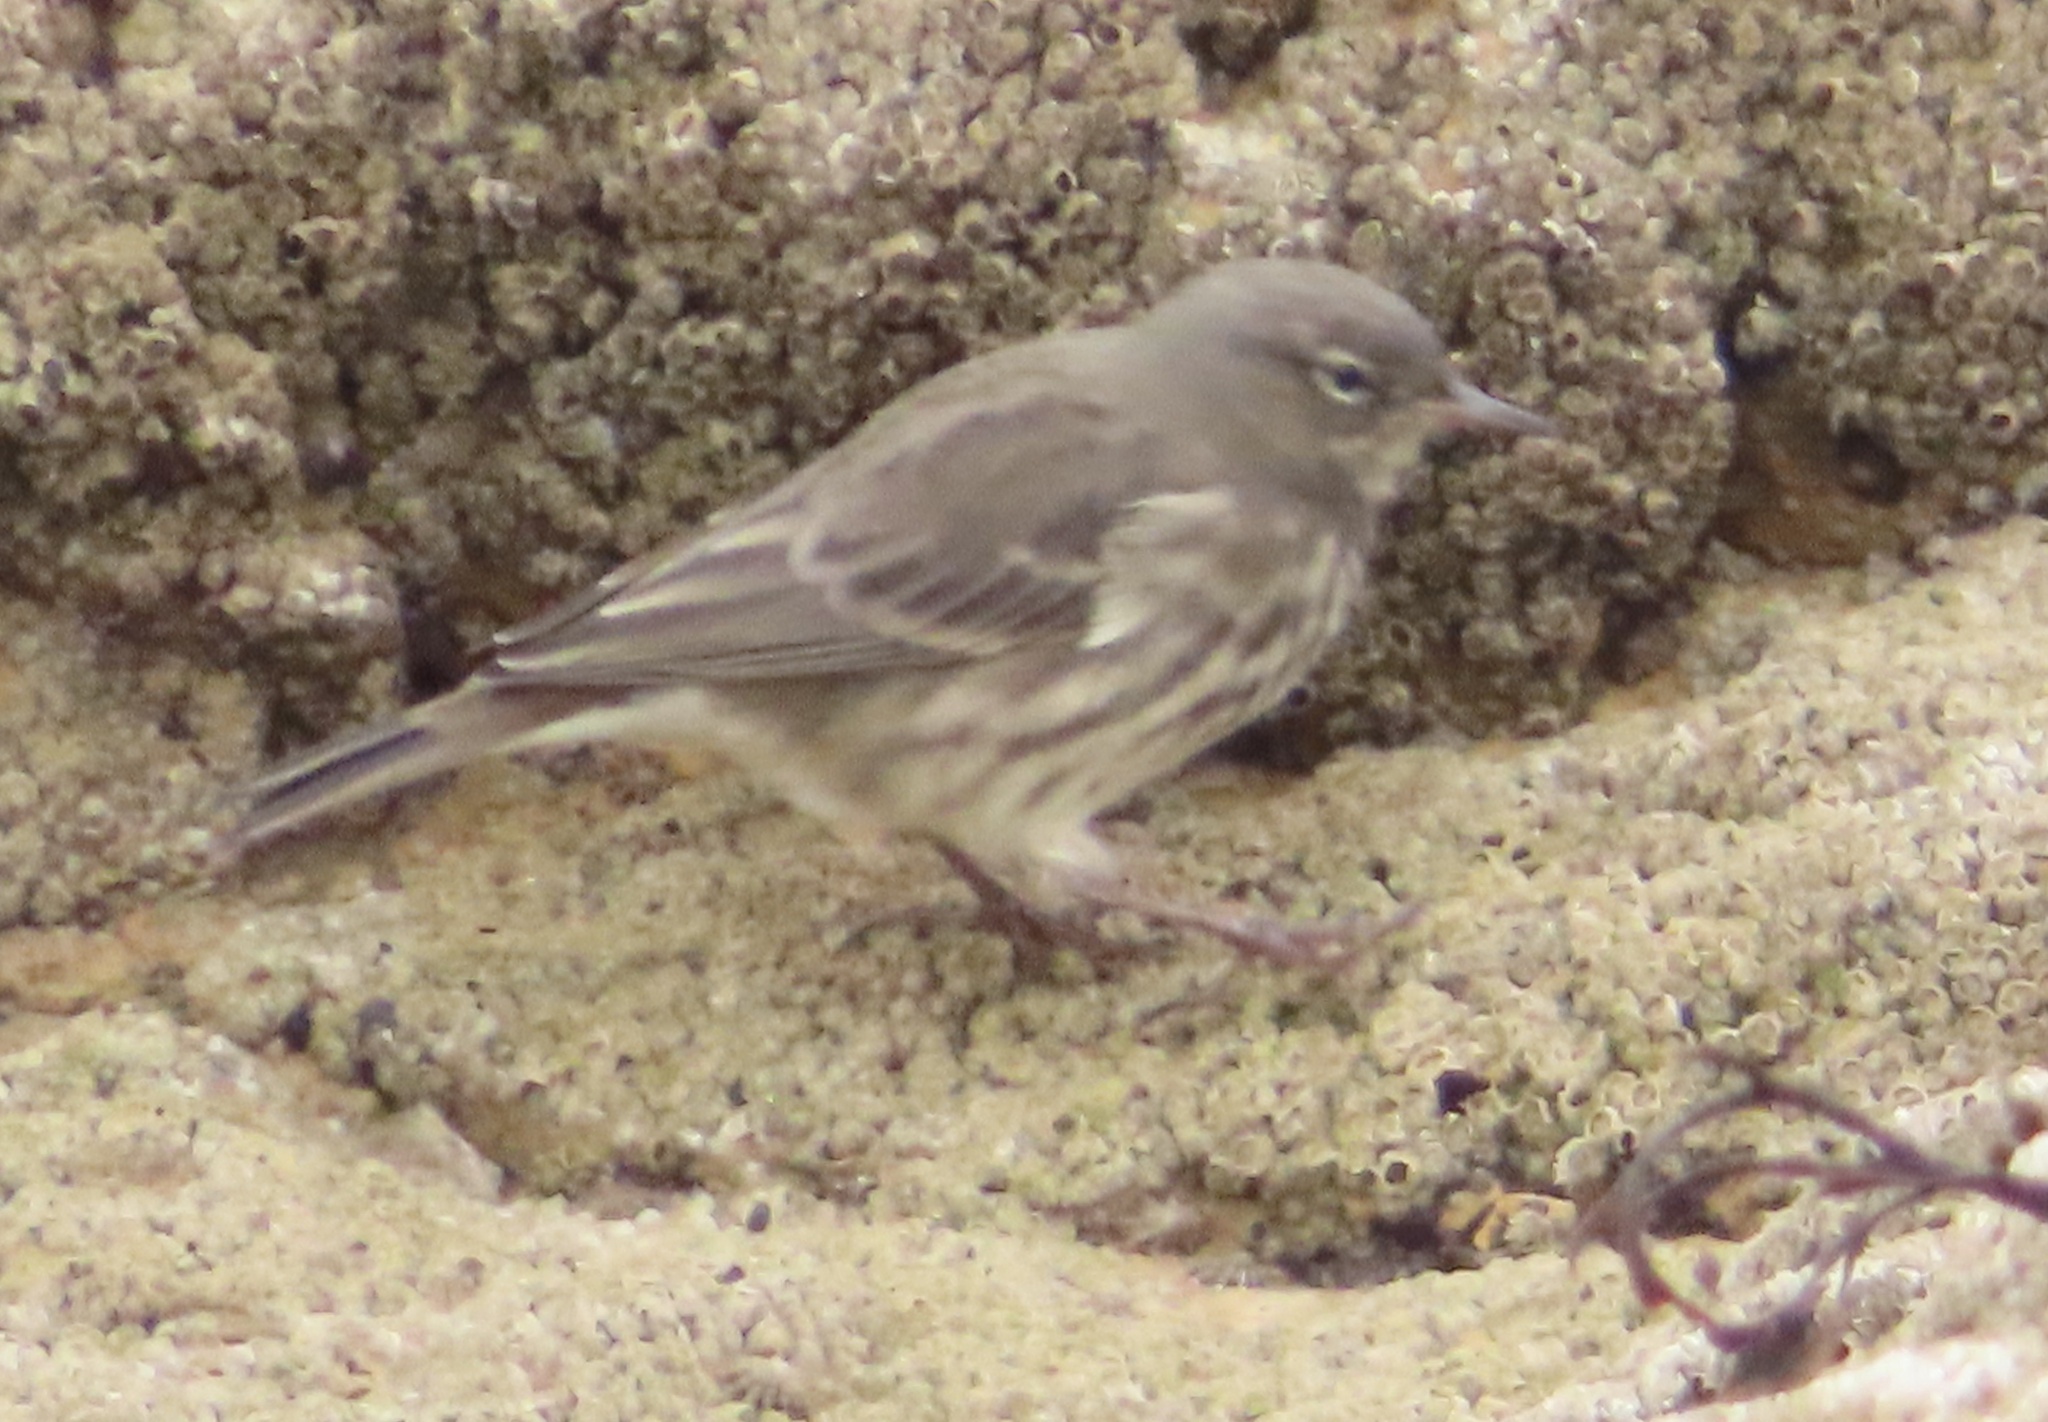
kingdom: Animalia
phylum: Chordata
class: Aves
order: Passeriformes
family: Motacillidae
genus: Anthus
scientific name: Anthus petrosus
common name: Eurasian rock pipit
